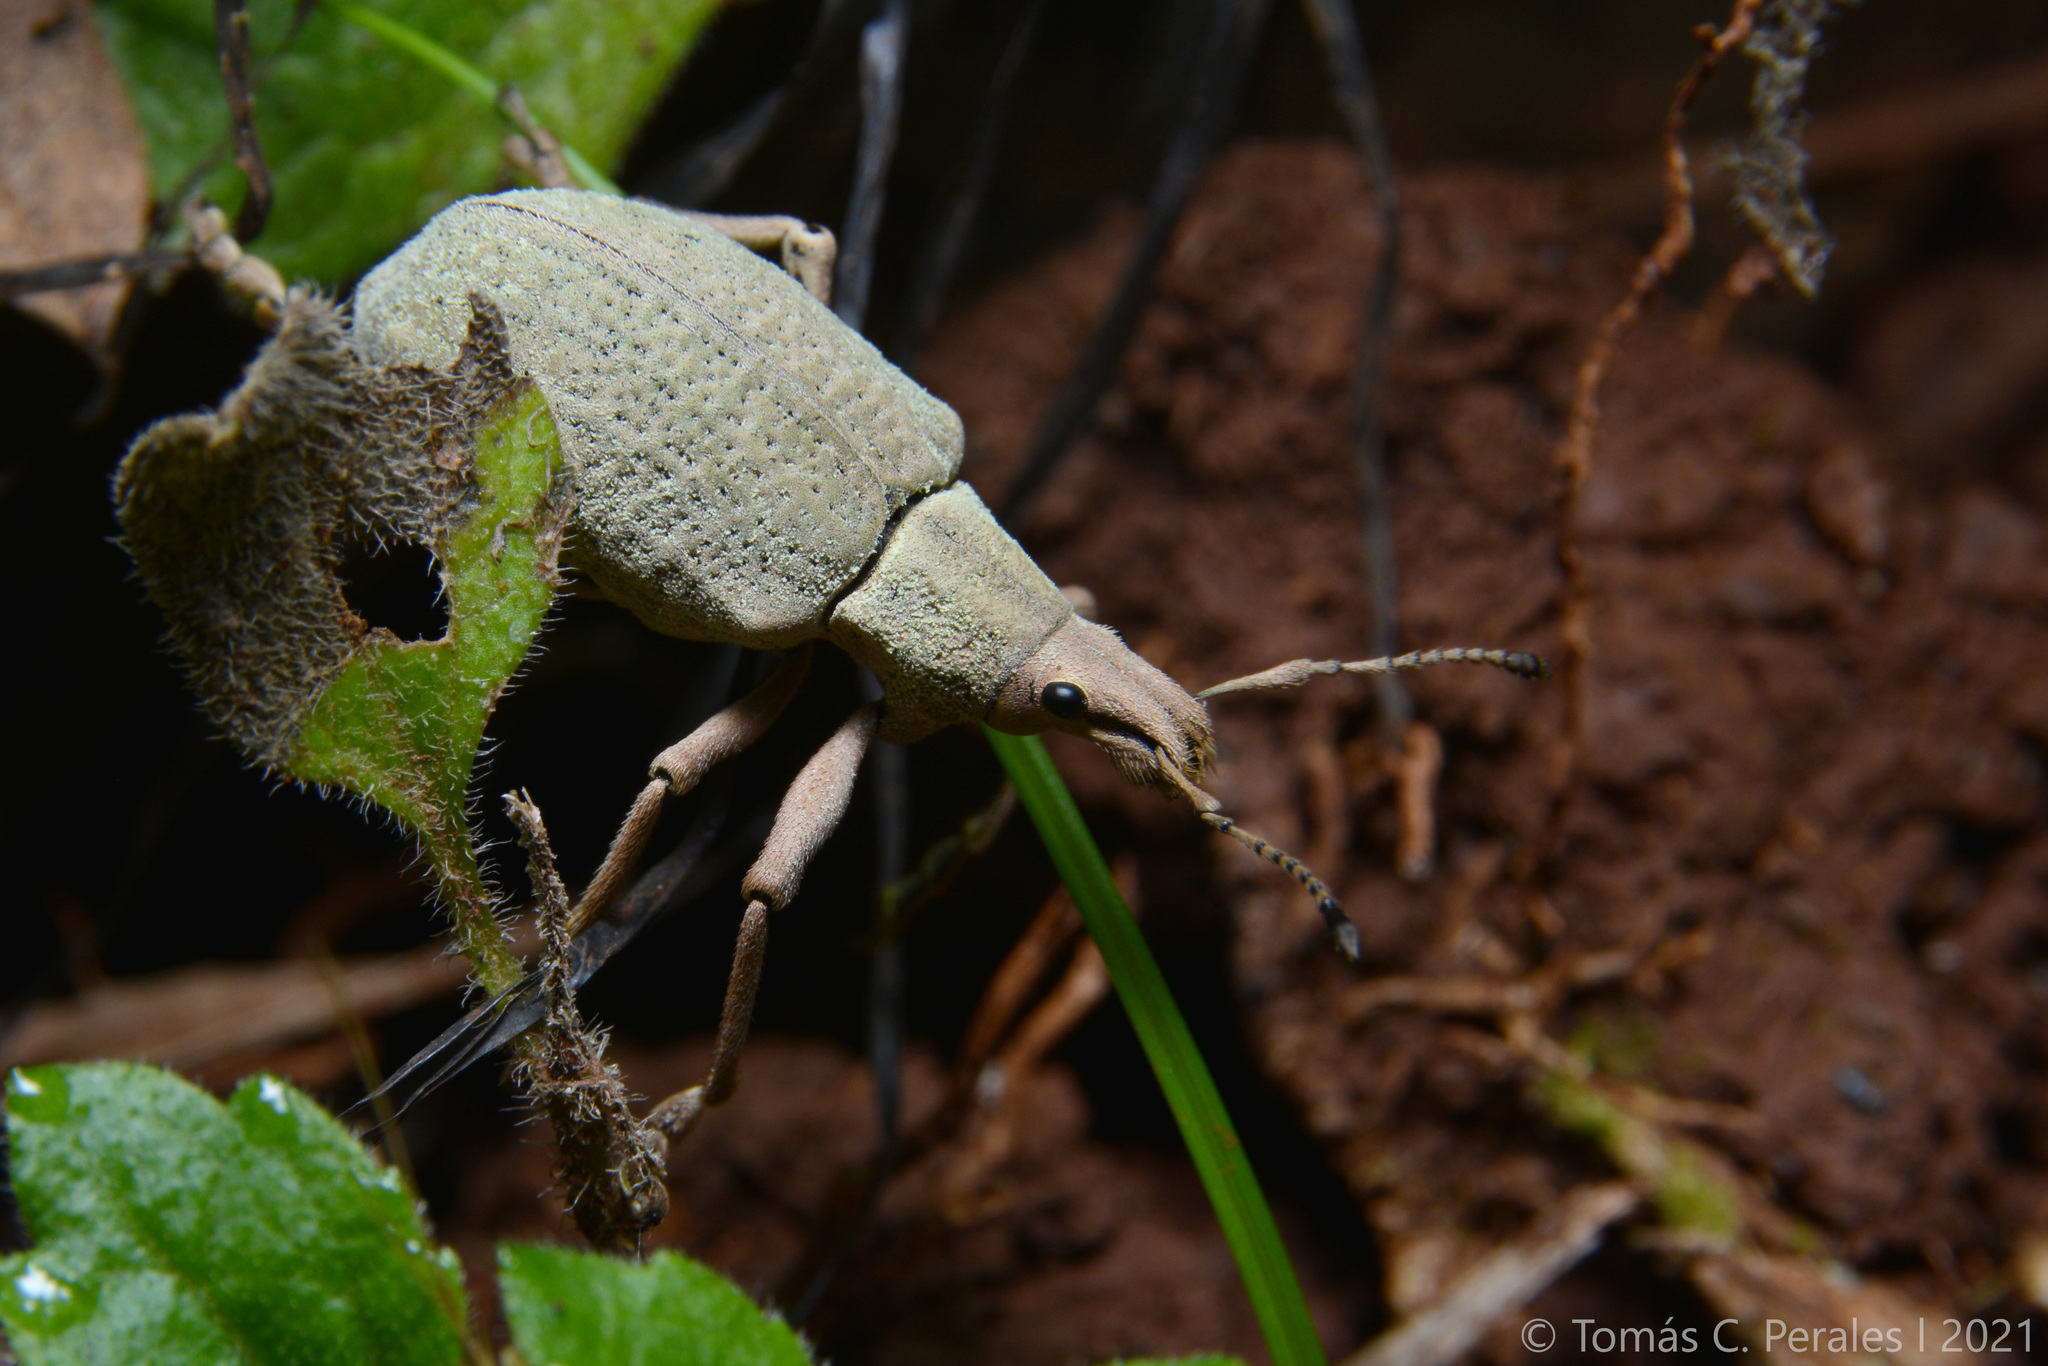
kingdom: Animalia
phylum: Arthropoda
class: Insecta
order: Coleoptera
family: Curculionidae
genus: Cyrtomon
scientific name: Cyrtomon luridus
